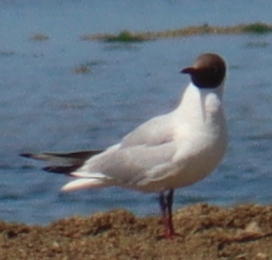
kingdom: Animalia
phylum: Chordata
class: Aves
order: Charadriiformes
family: Laridae
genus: Chroicocephalus
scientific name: Chroicocephalus ridibundus
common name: Black-headed gull
